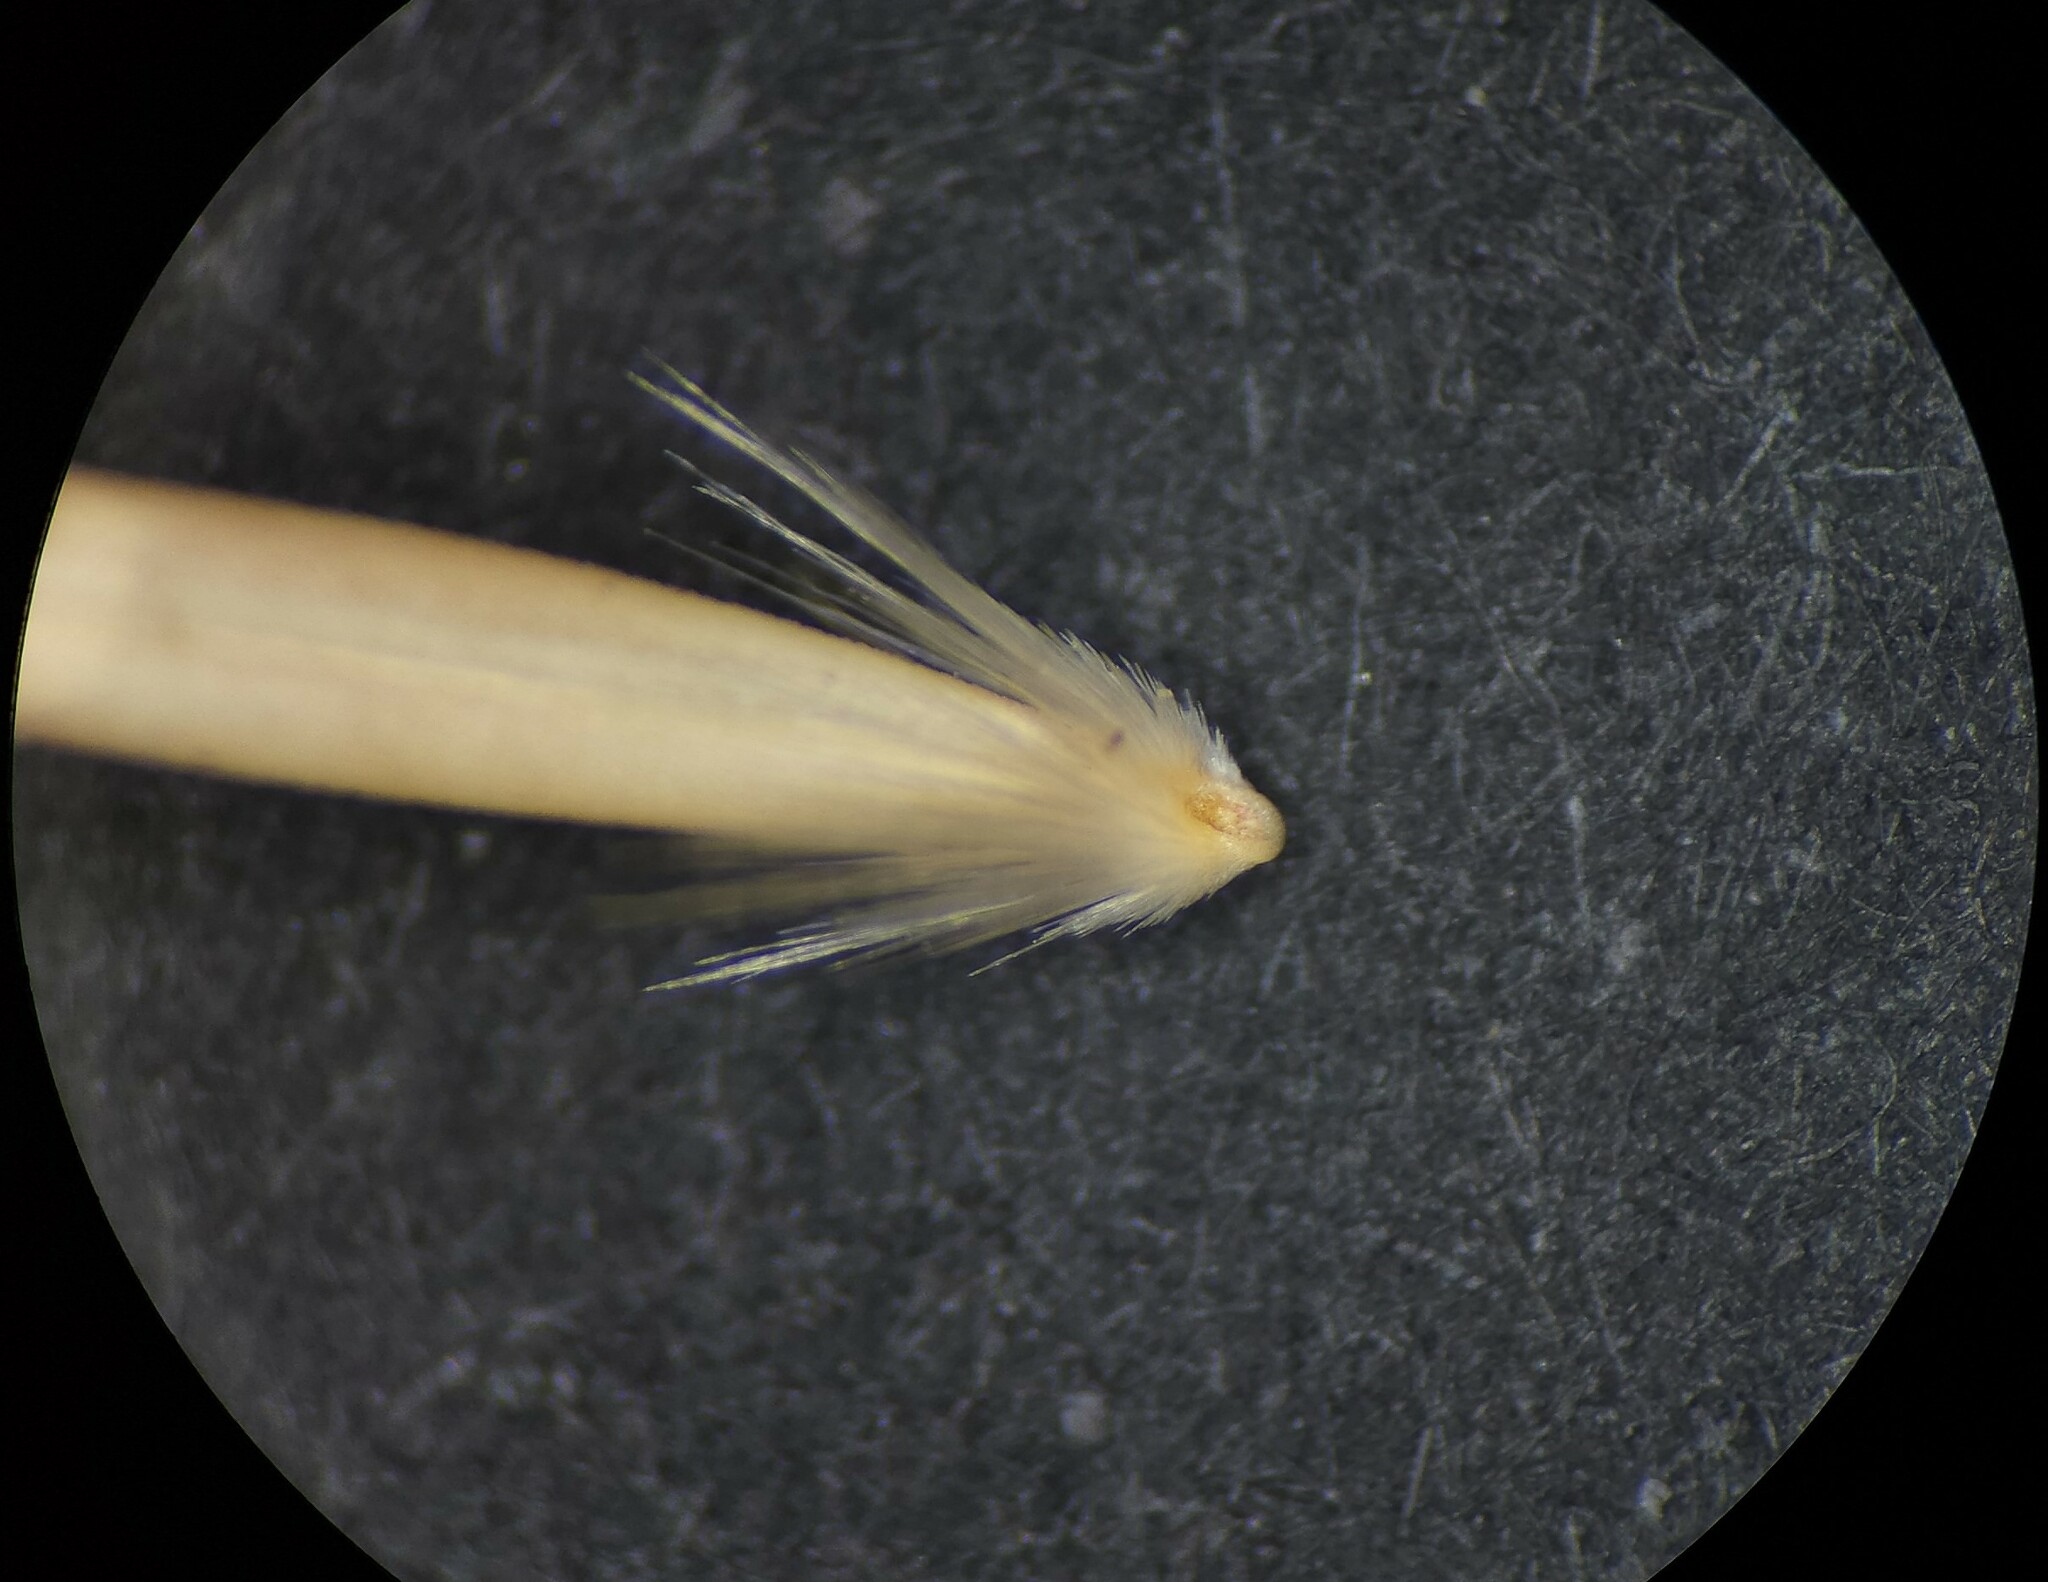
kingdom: Plantae
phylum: Tracheophyta
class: Liliopsida
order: Poales
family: Poaceae
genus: Pentapogon
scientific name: Pentapogon quadrifidus
